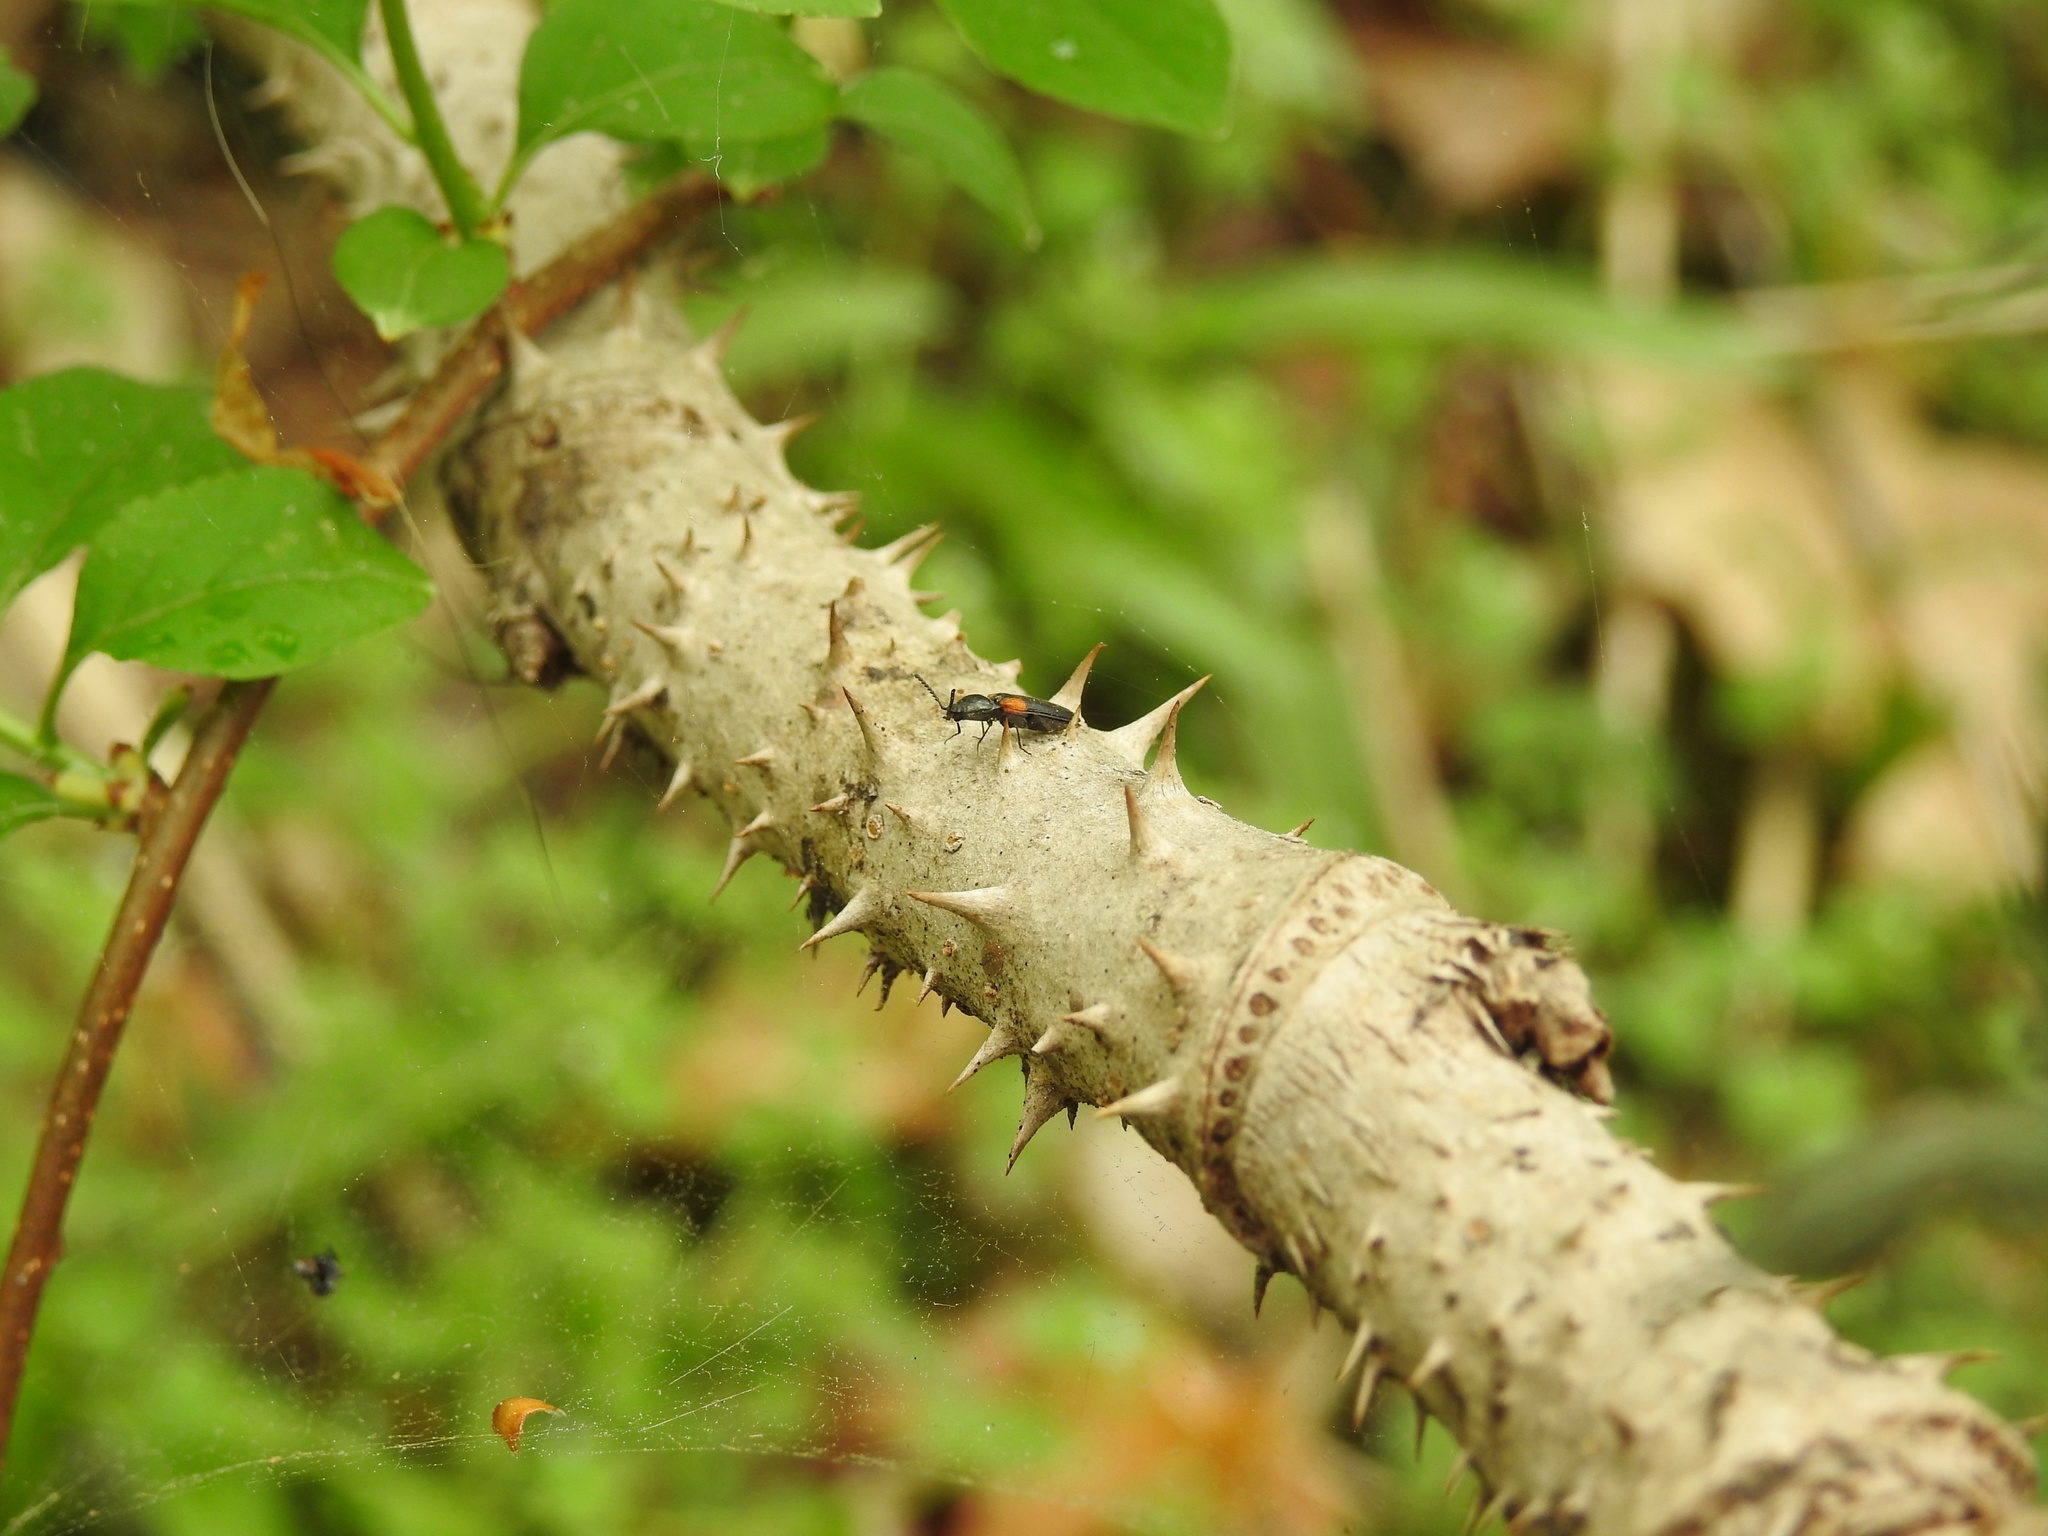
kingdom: Plantae
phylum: Tracheophyta
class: Magnoliopsida
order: Apiales
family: Araliaceae
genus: Aralia
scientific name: Aralia elata
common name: Japanese angelica-tree
